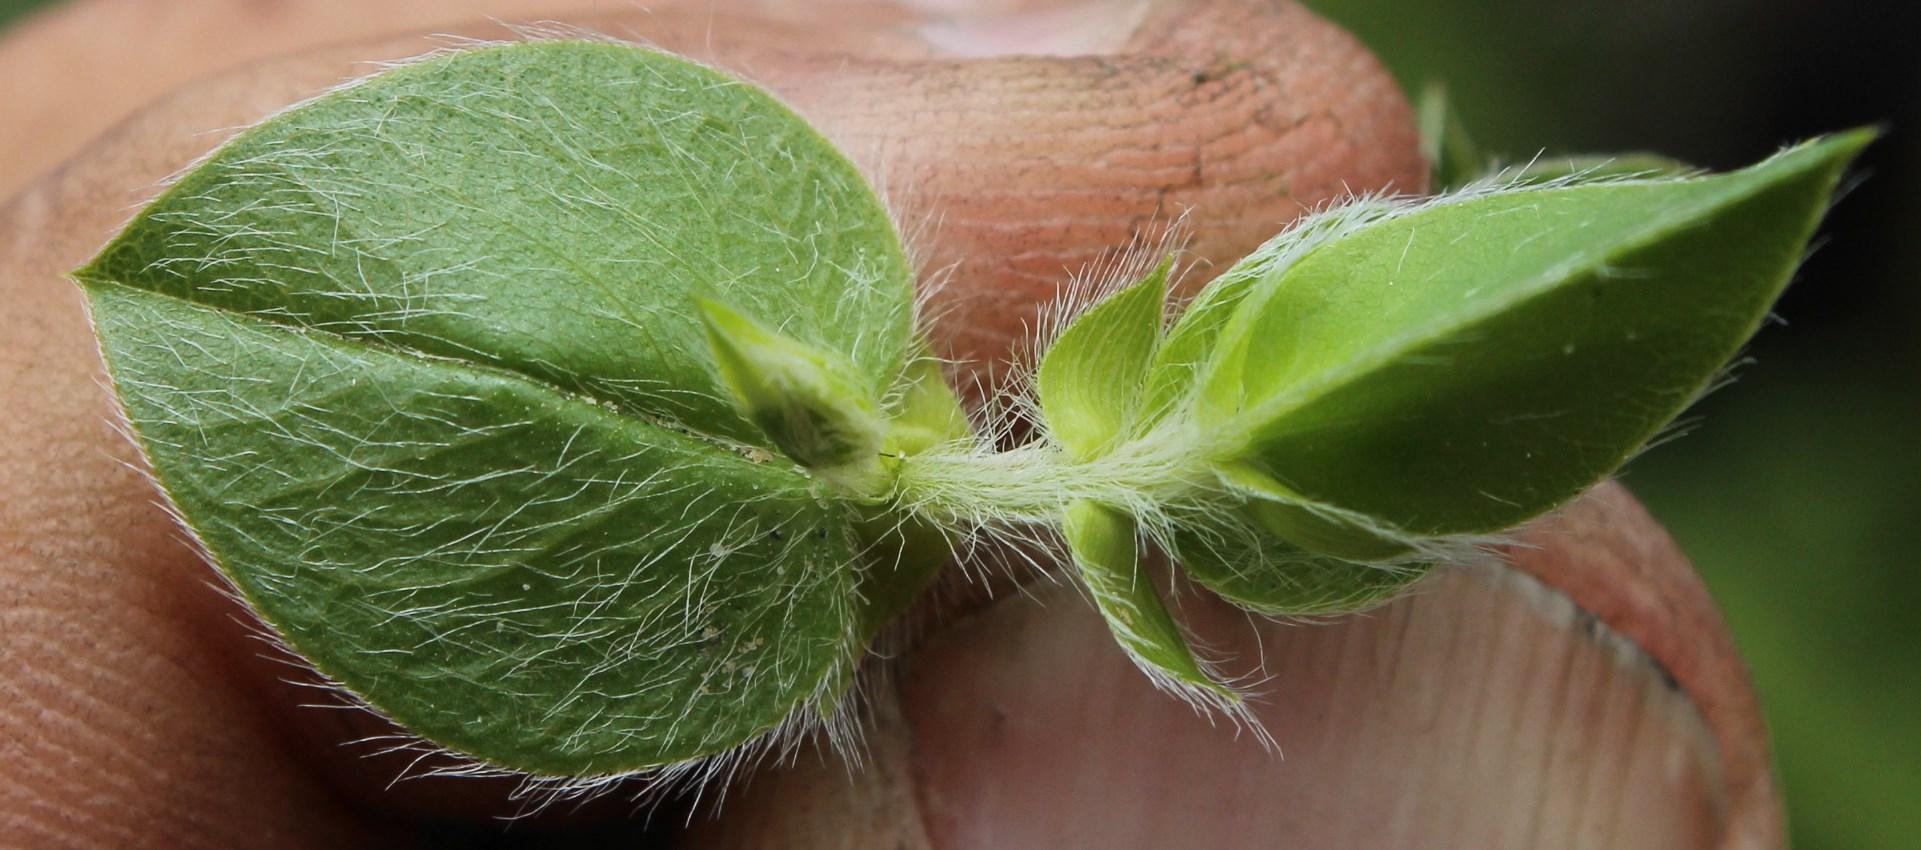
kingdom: Plantae
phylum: Tracheophyta
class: Magnoliopsida
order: Fabales
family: Fabaceae
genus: Psoralea
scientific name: Psoralea imbricata
